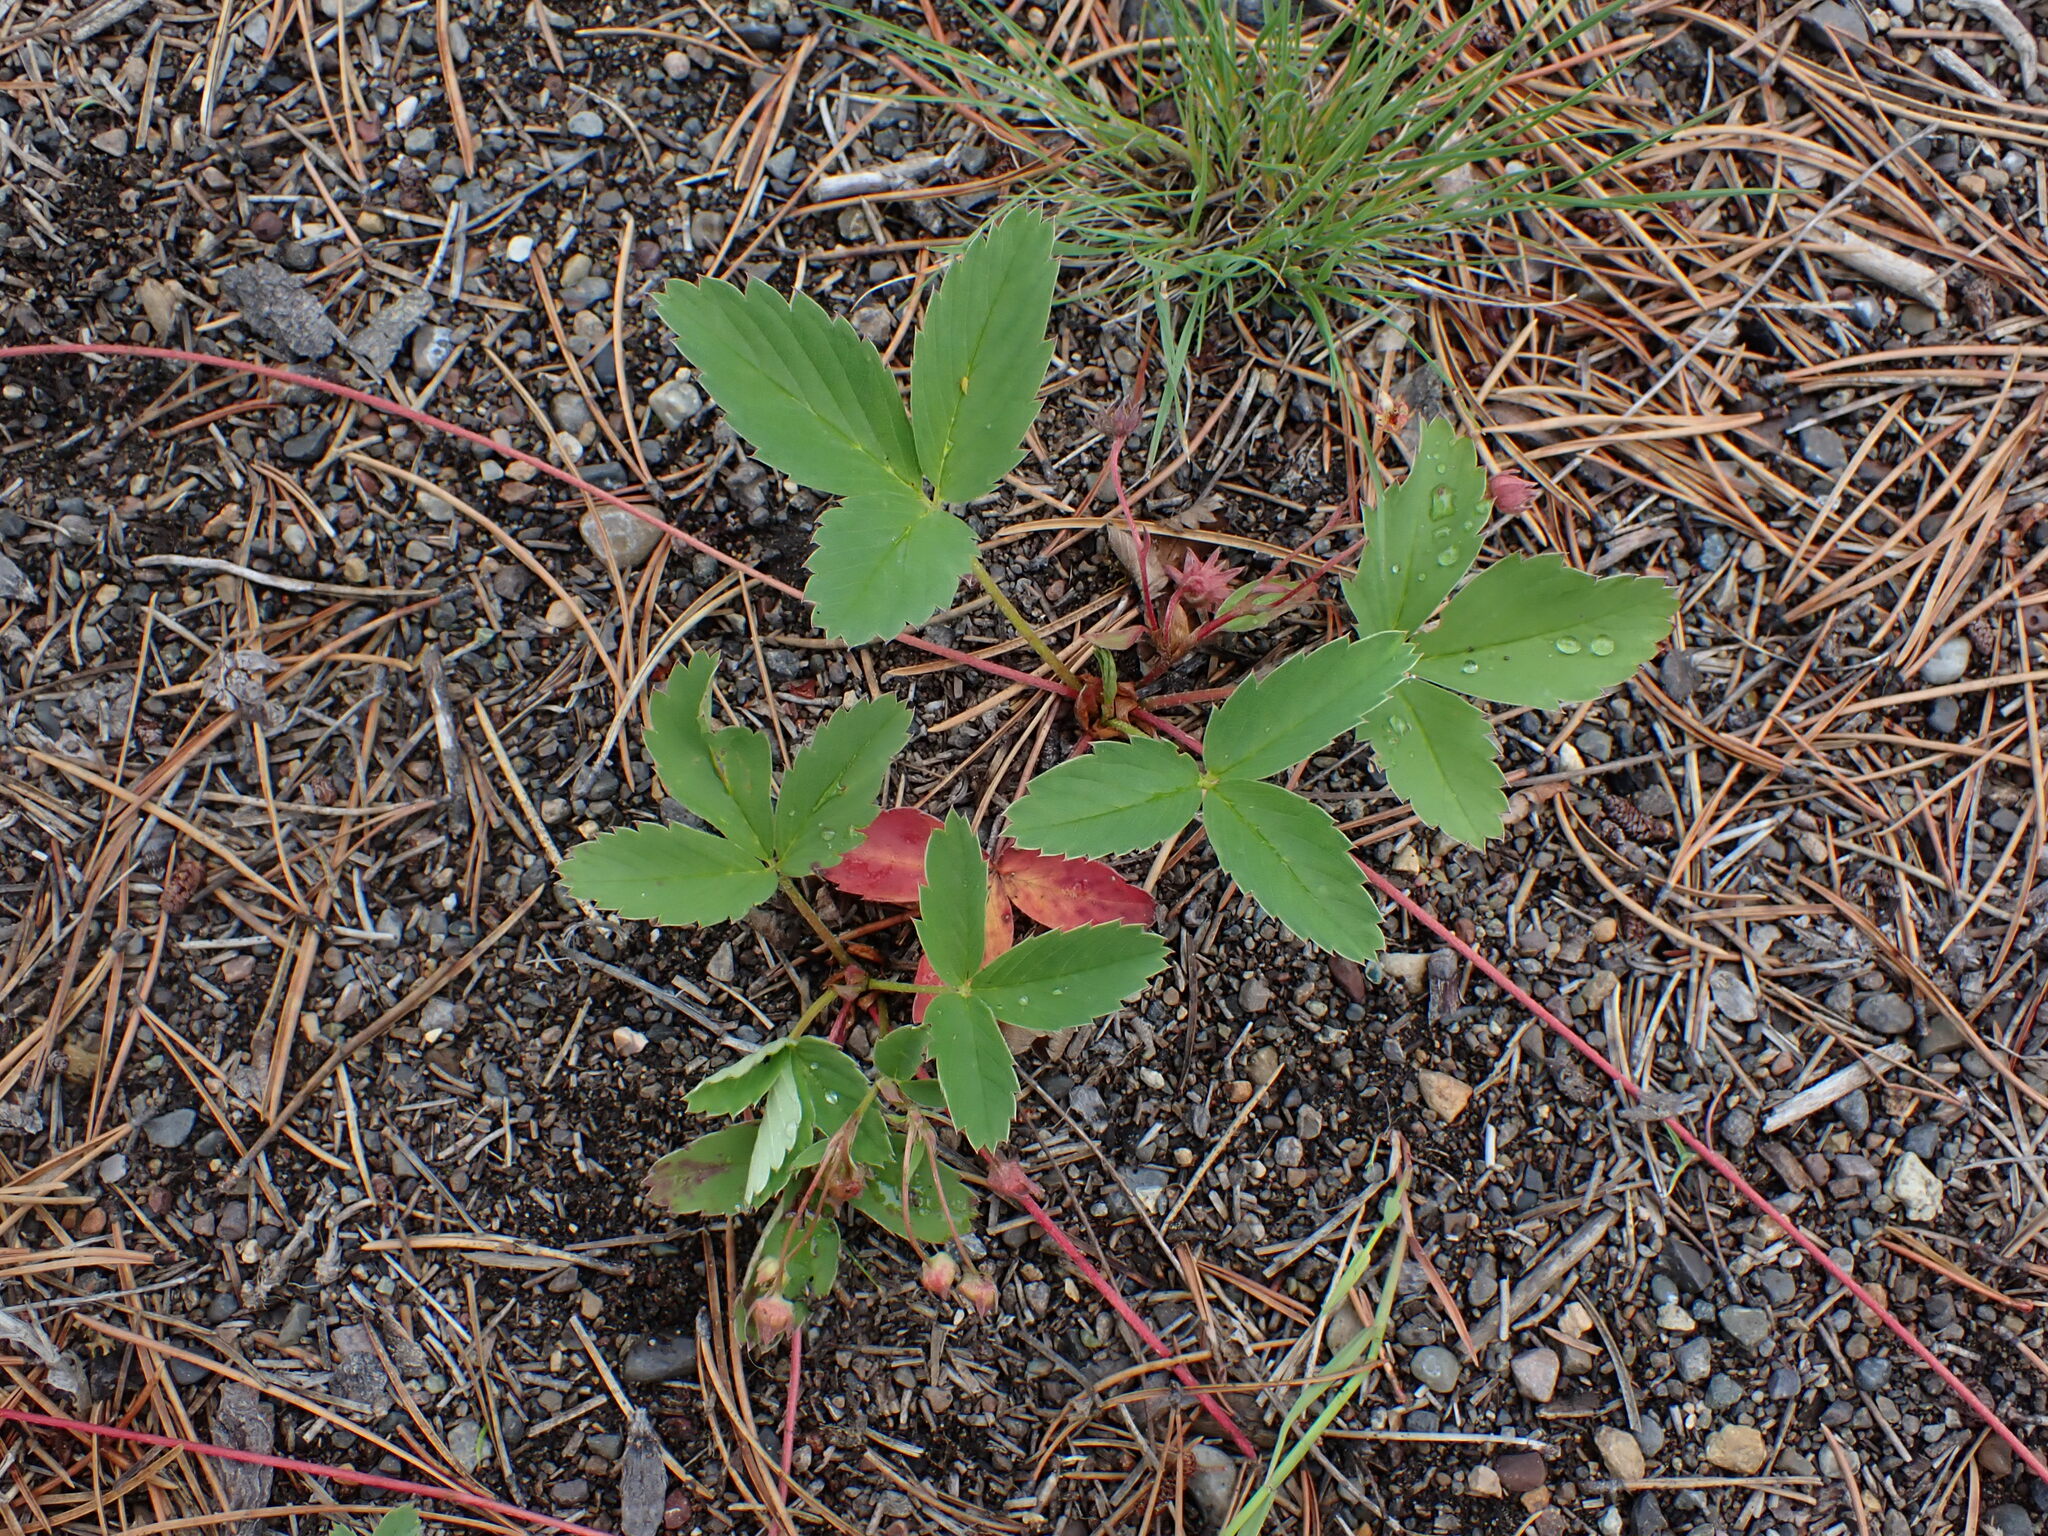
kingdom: Plantae
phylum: Tracheophyta
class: Magnoliopsida
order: Rosales
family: Rosaceae
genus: Fragaria
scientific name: Fragaria virginiana
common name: Thickleaved wild strawberry
